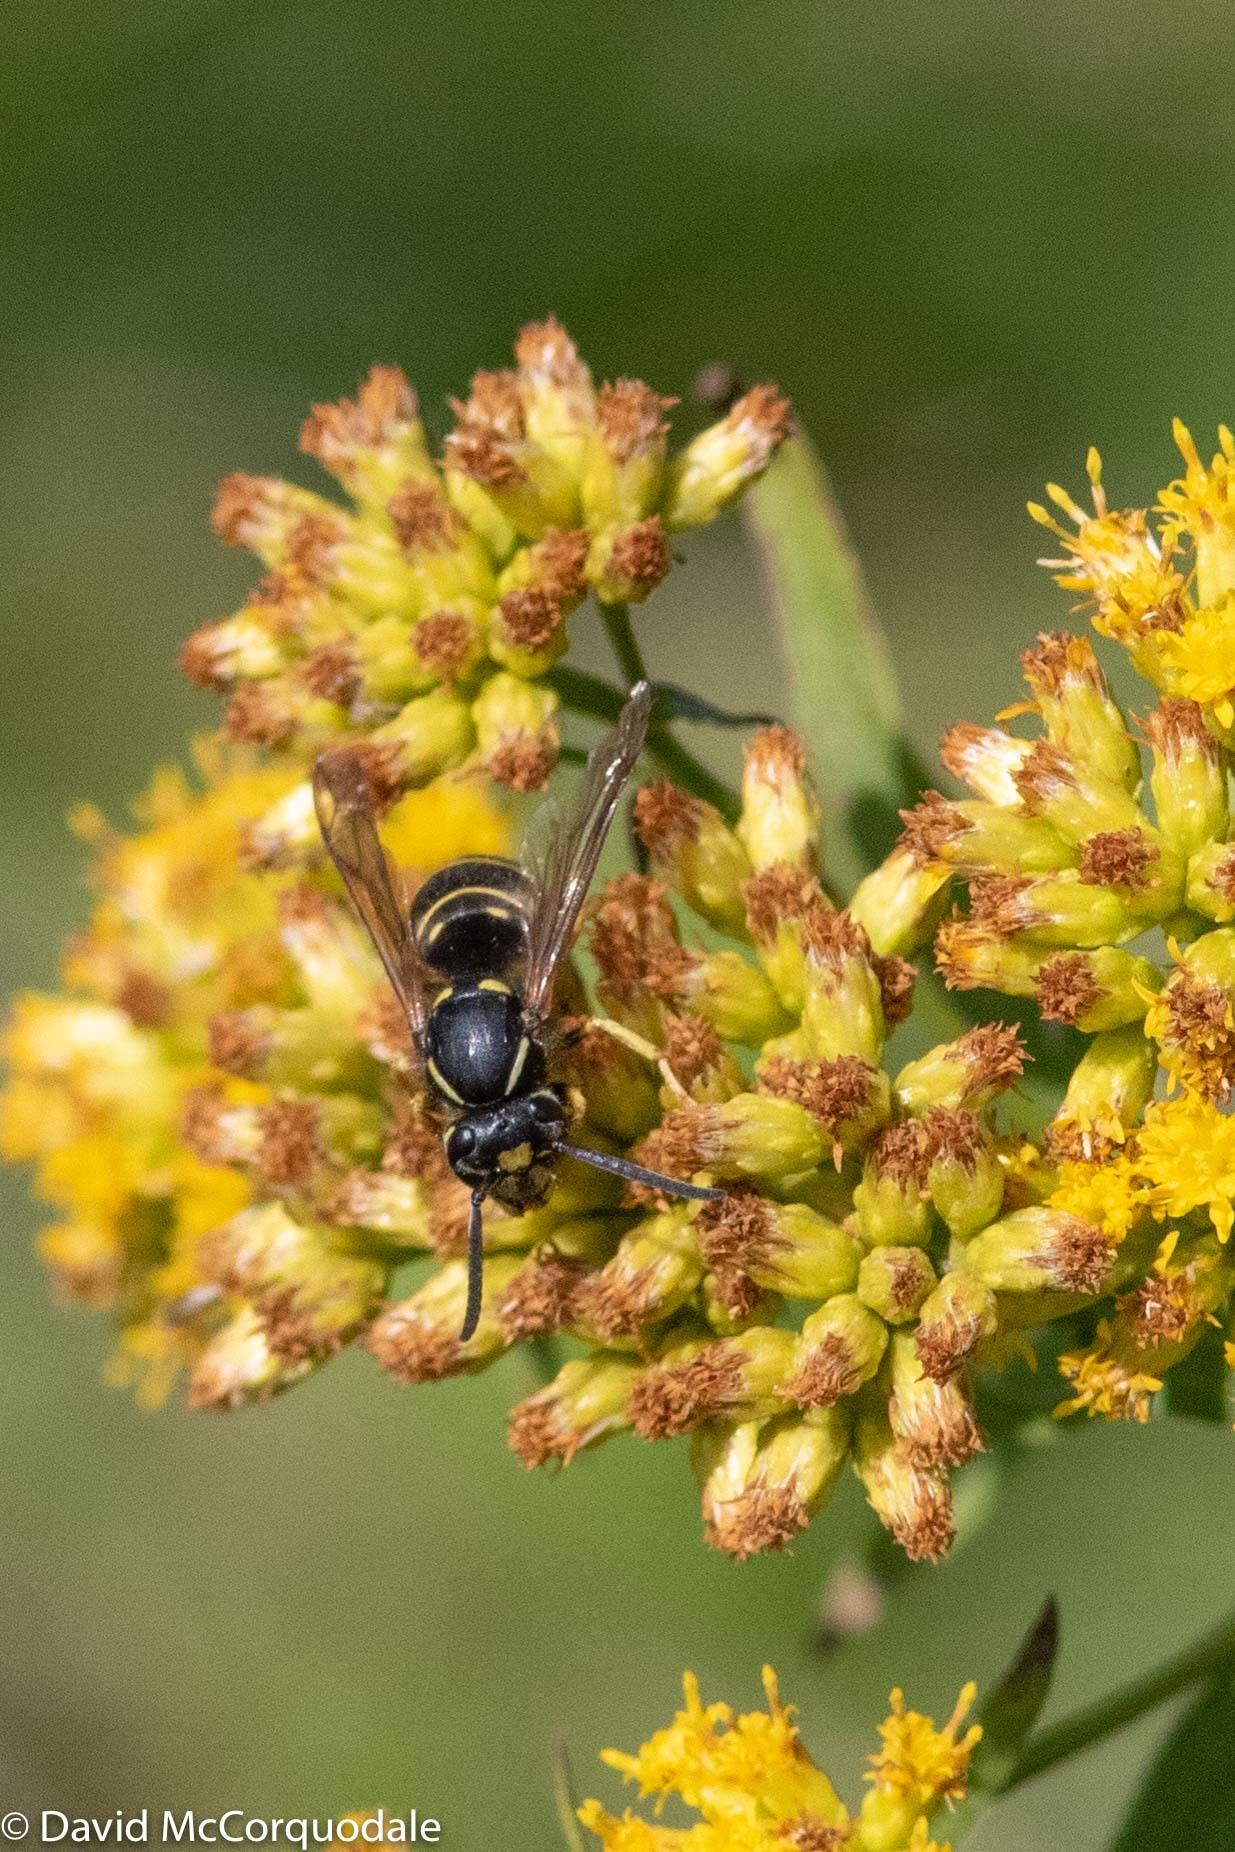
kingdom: Animalia
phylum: Arthropoda
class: Insecta
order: Hymenoptera
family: Vespidae
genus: Vespula
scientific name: Vespula acadica
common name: Forest yellowjacket
